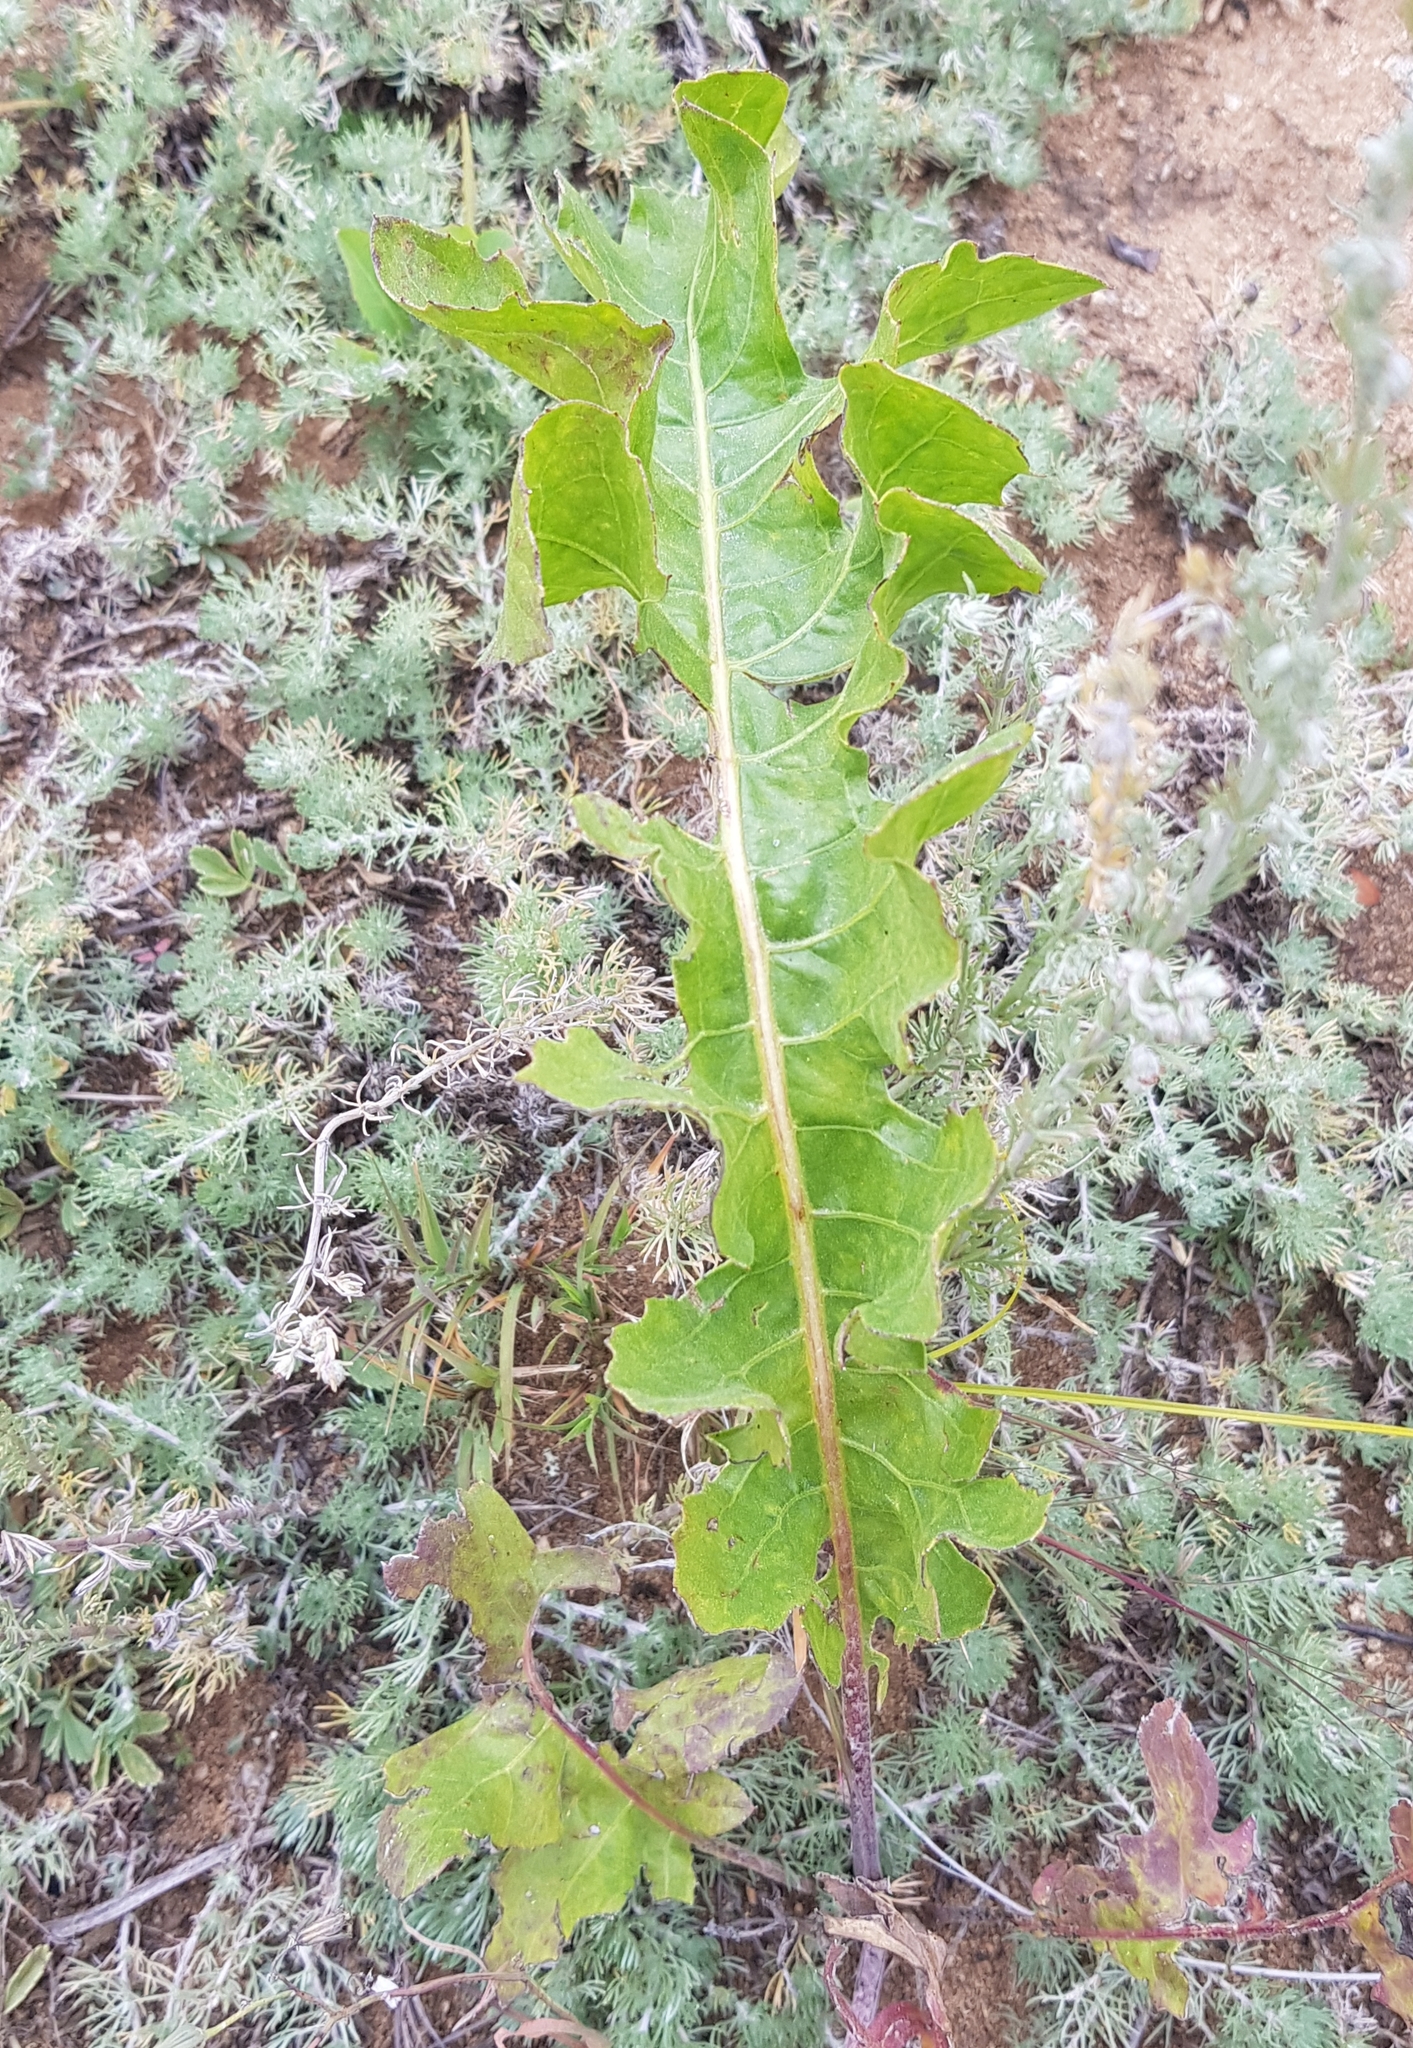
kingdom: Plantae
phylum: Tracheophyta
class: Magnoliopsida
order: Asterales
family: Asteraceae
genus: Leuzea
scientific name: Leuzea uniflora
